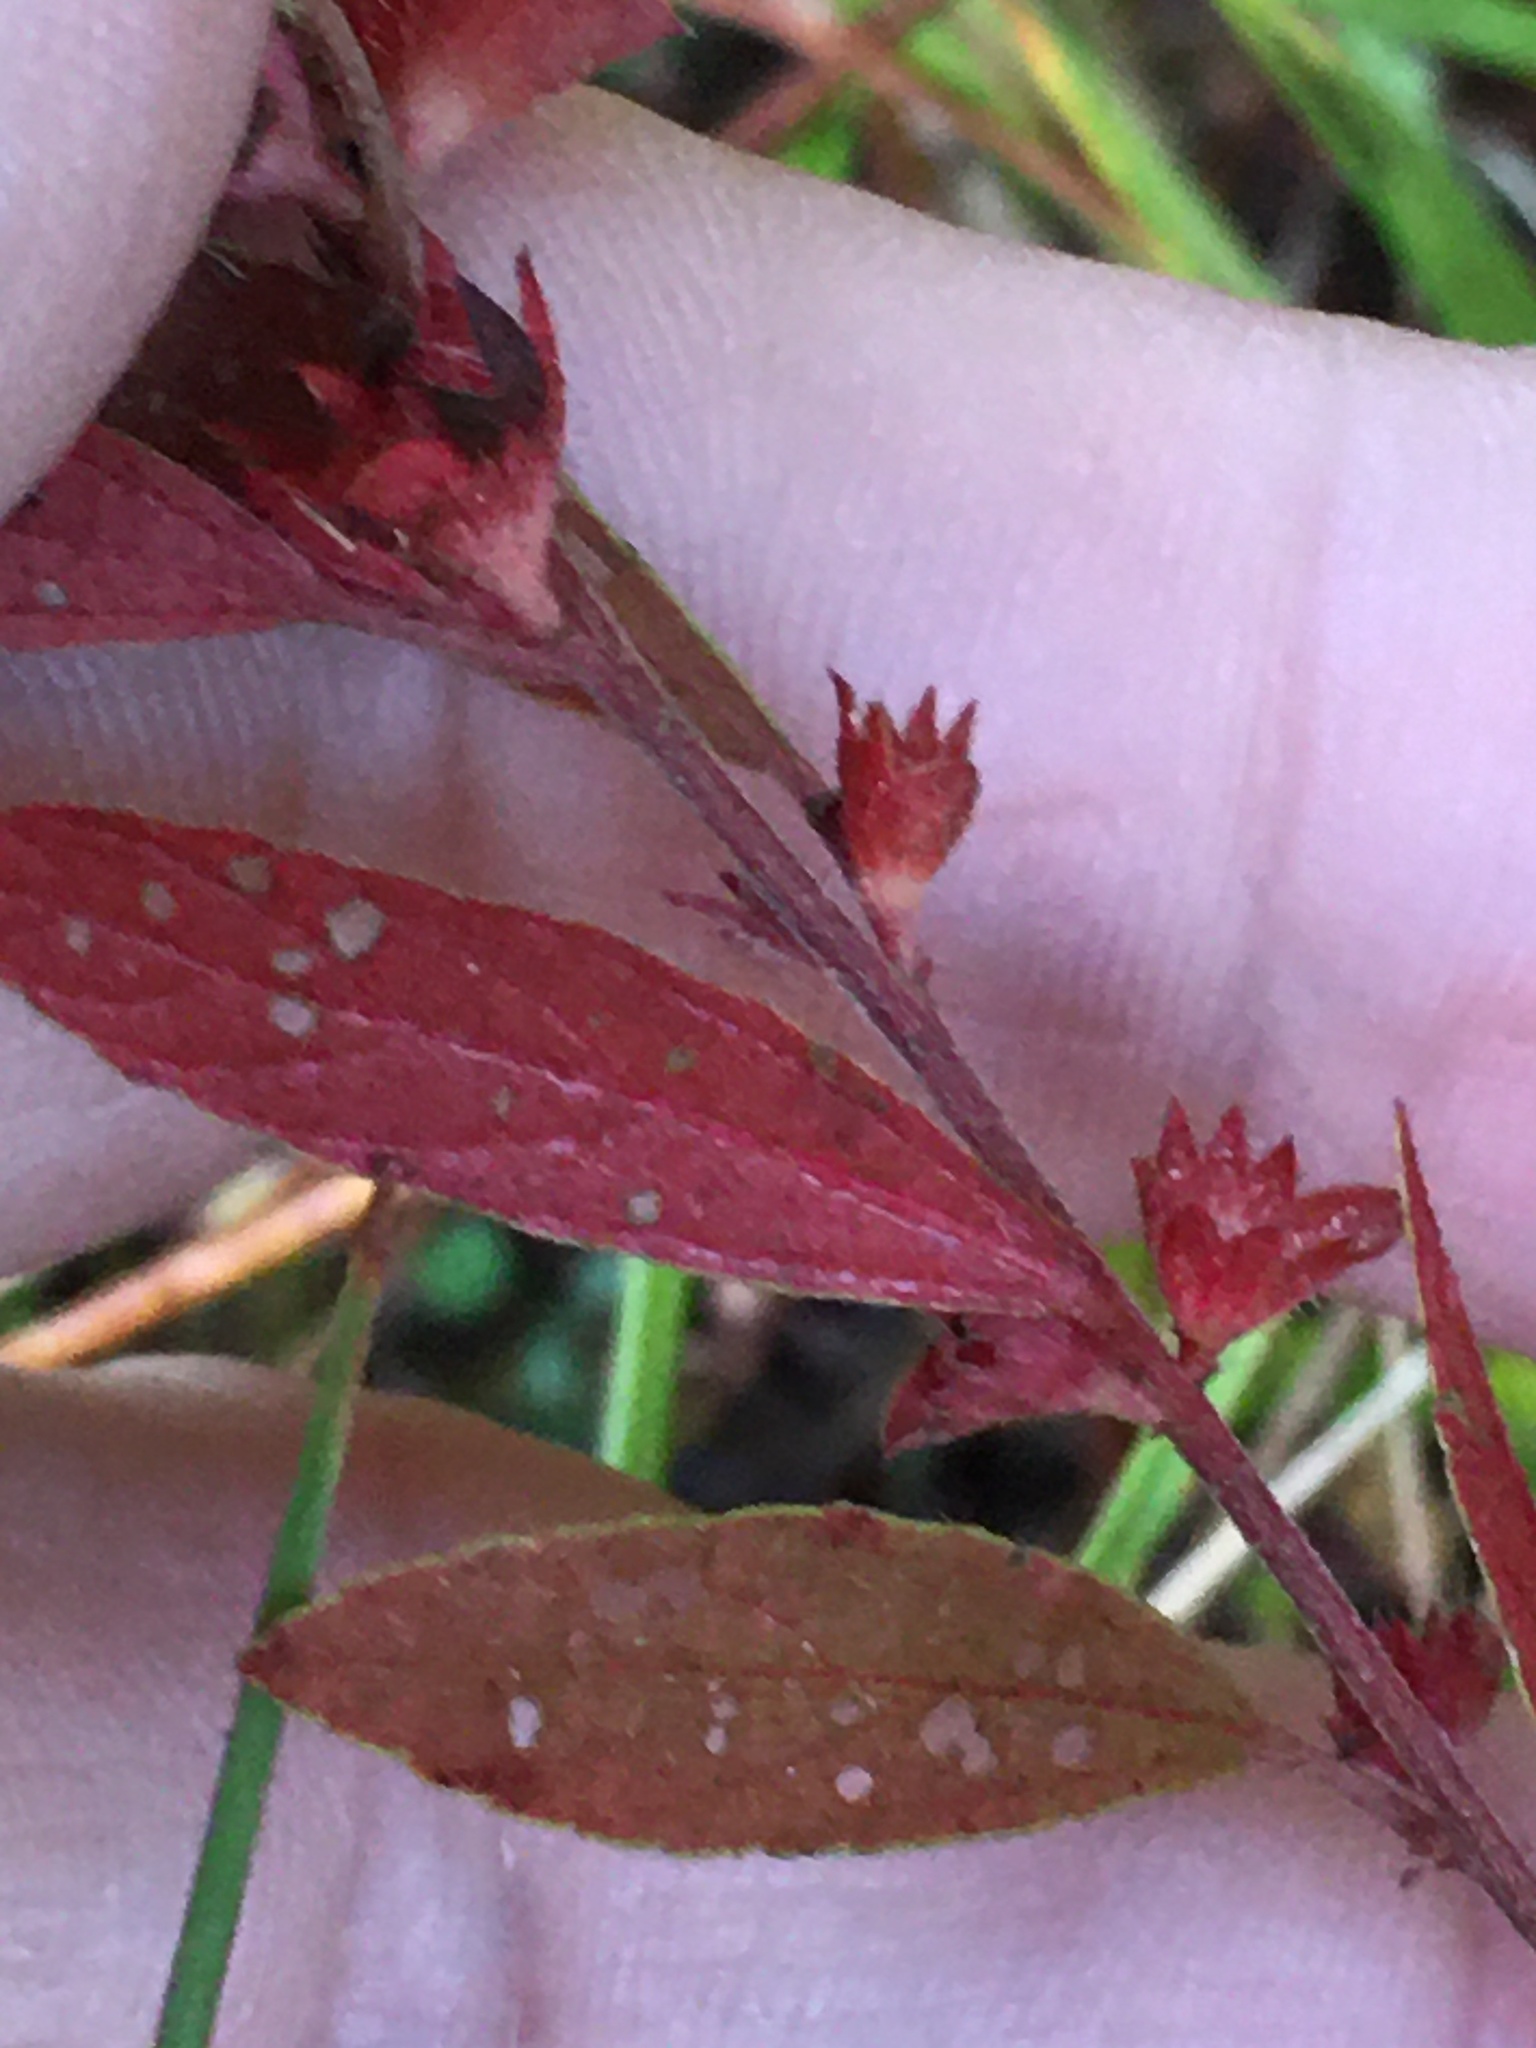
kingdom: Plantae
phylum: Tracheophyta
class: Magnoliopsida
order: Malpighiales
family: Euphorbiaceae
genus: Acalypha
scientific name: Acalypha gracilens
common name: Slender three-seeded mercury
